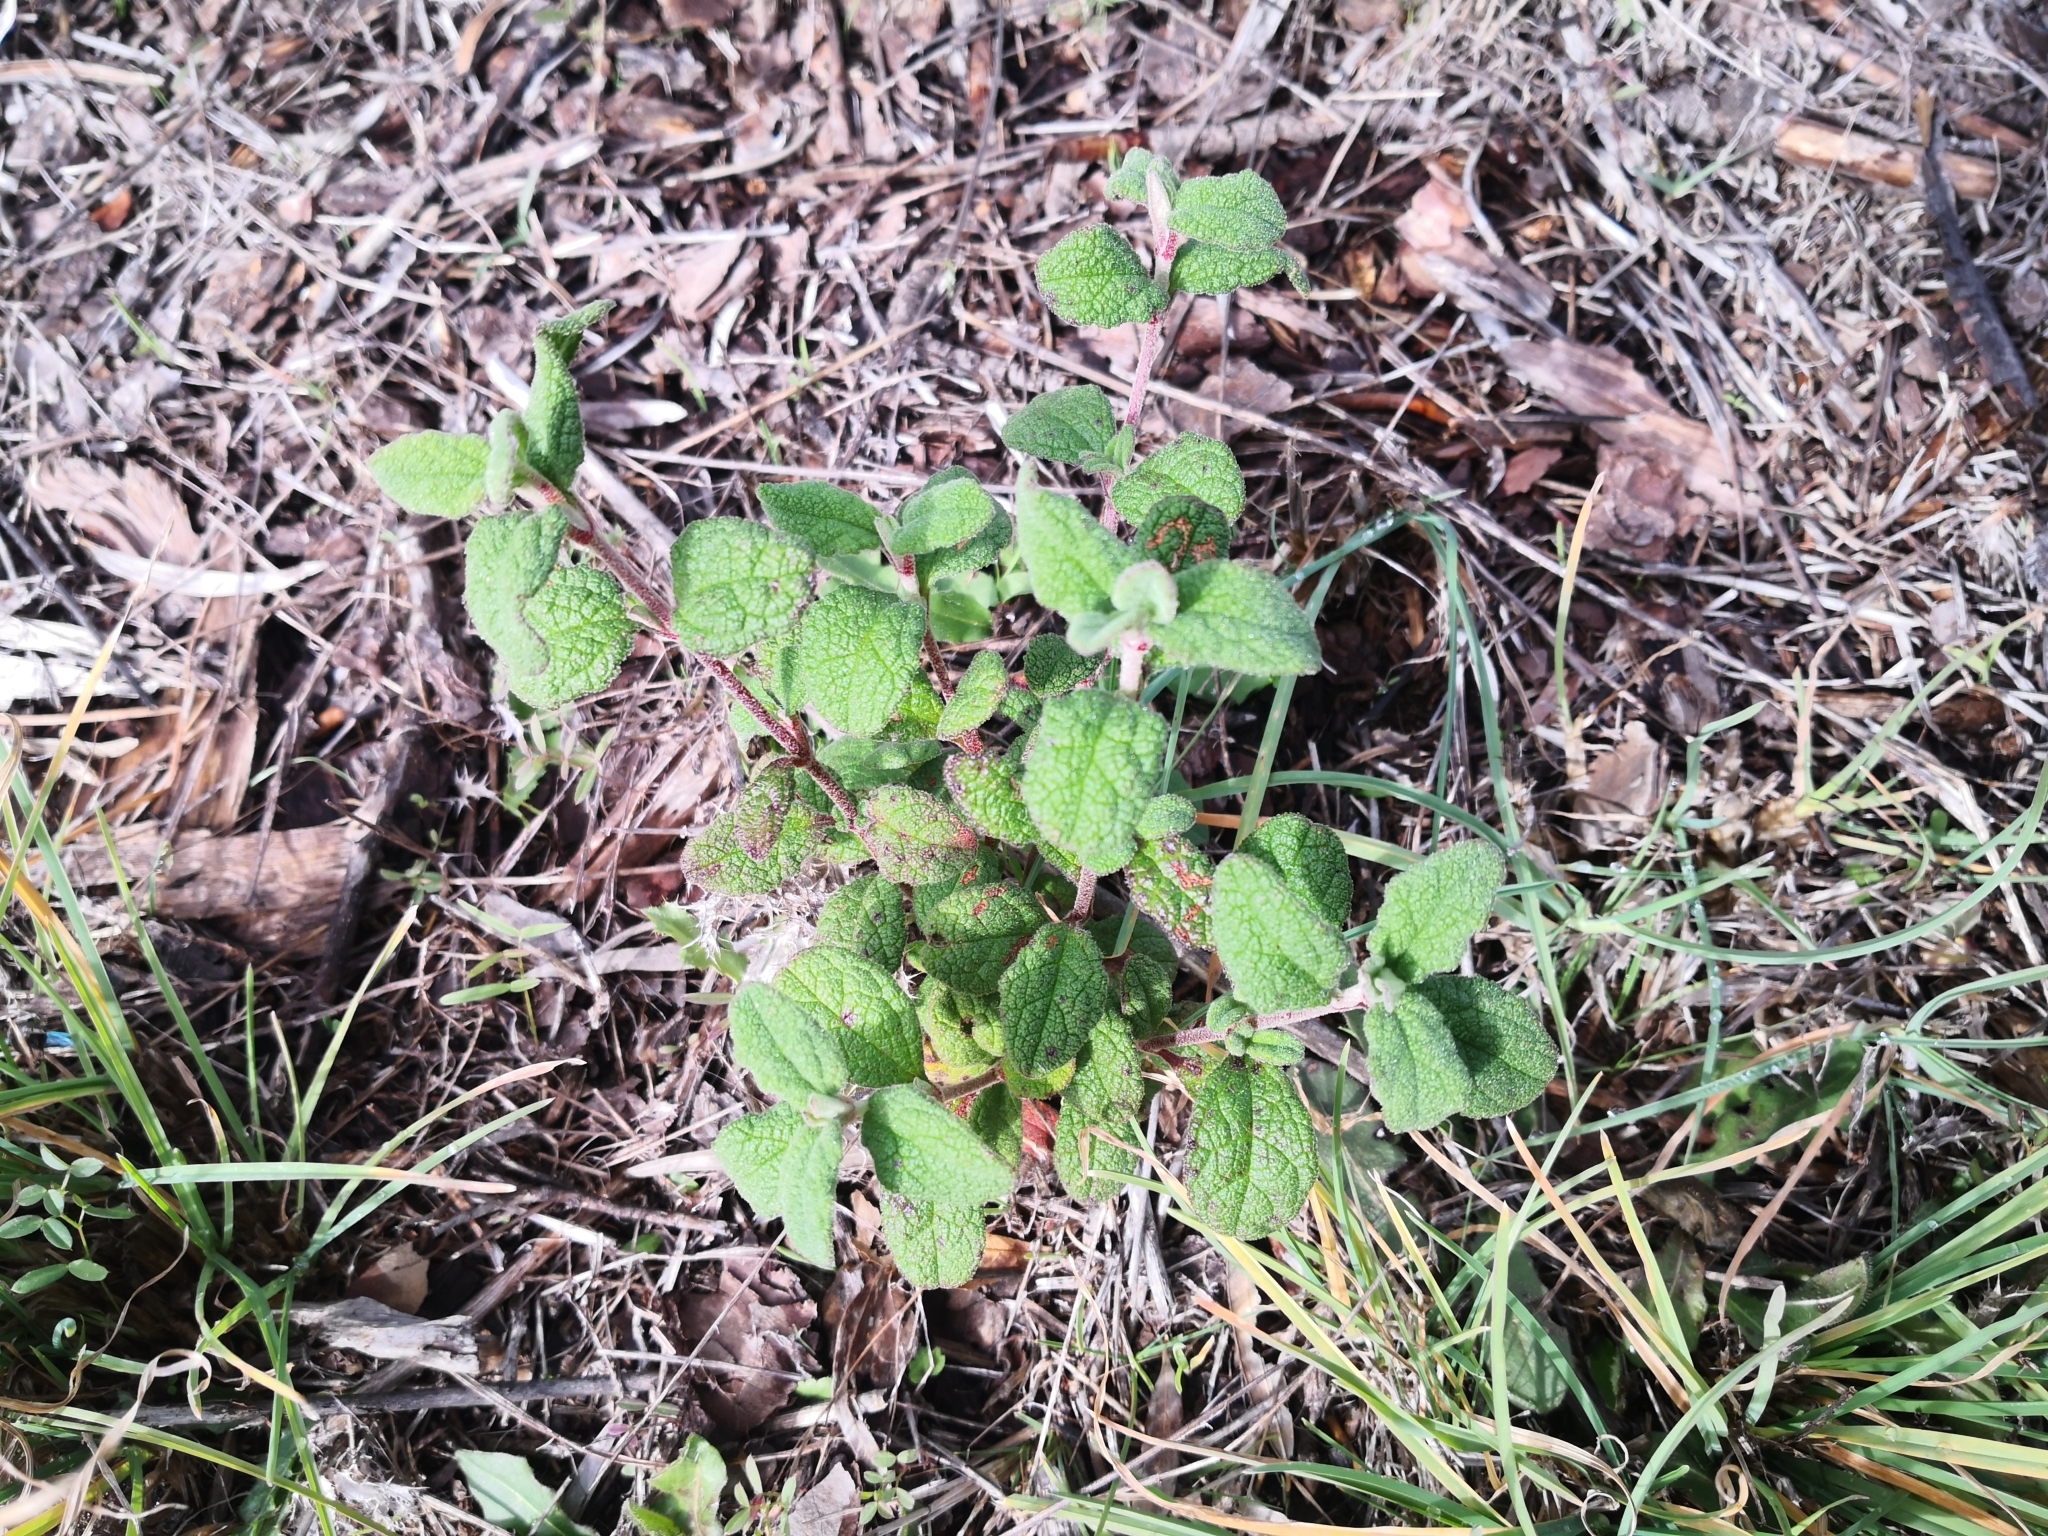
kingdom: Plantae
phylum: Tracheophyta
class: Magnoliopsida
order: Malvales
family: Cistaceae
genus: Cistus
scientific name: Cistus salviifolius
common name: Salvia cistus
